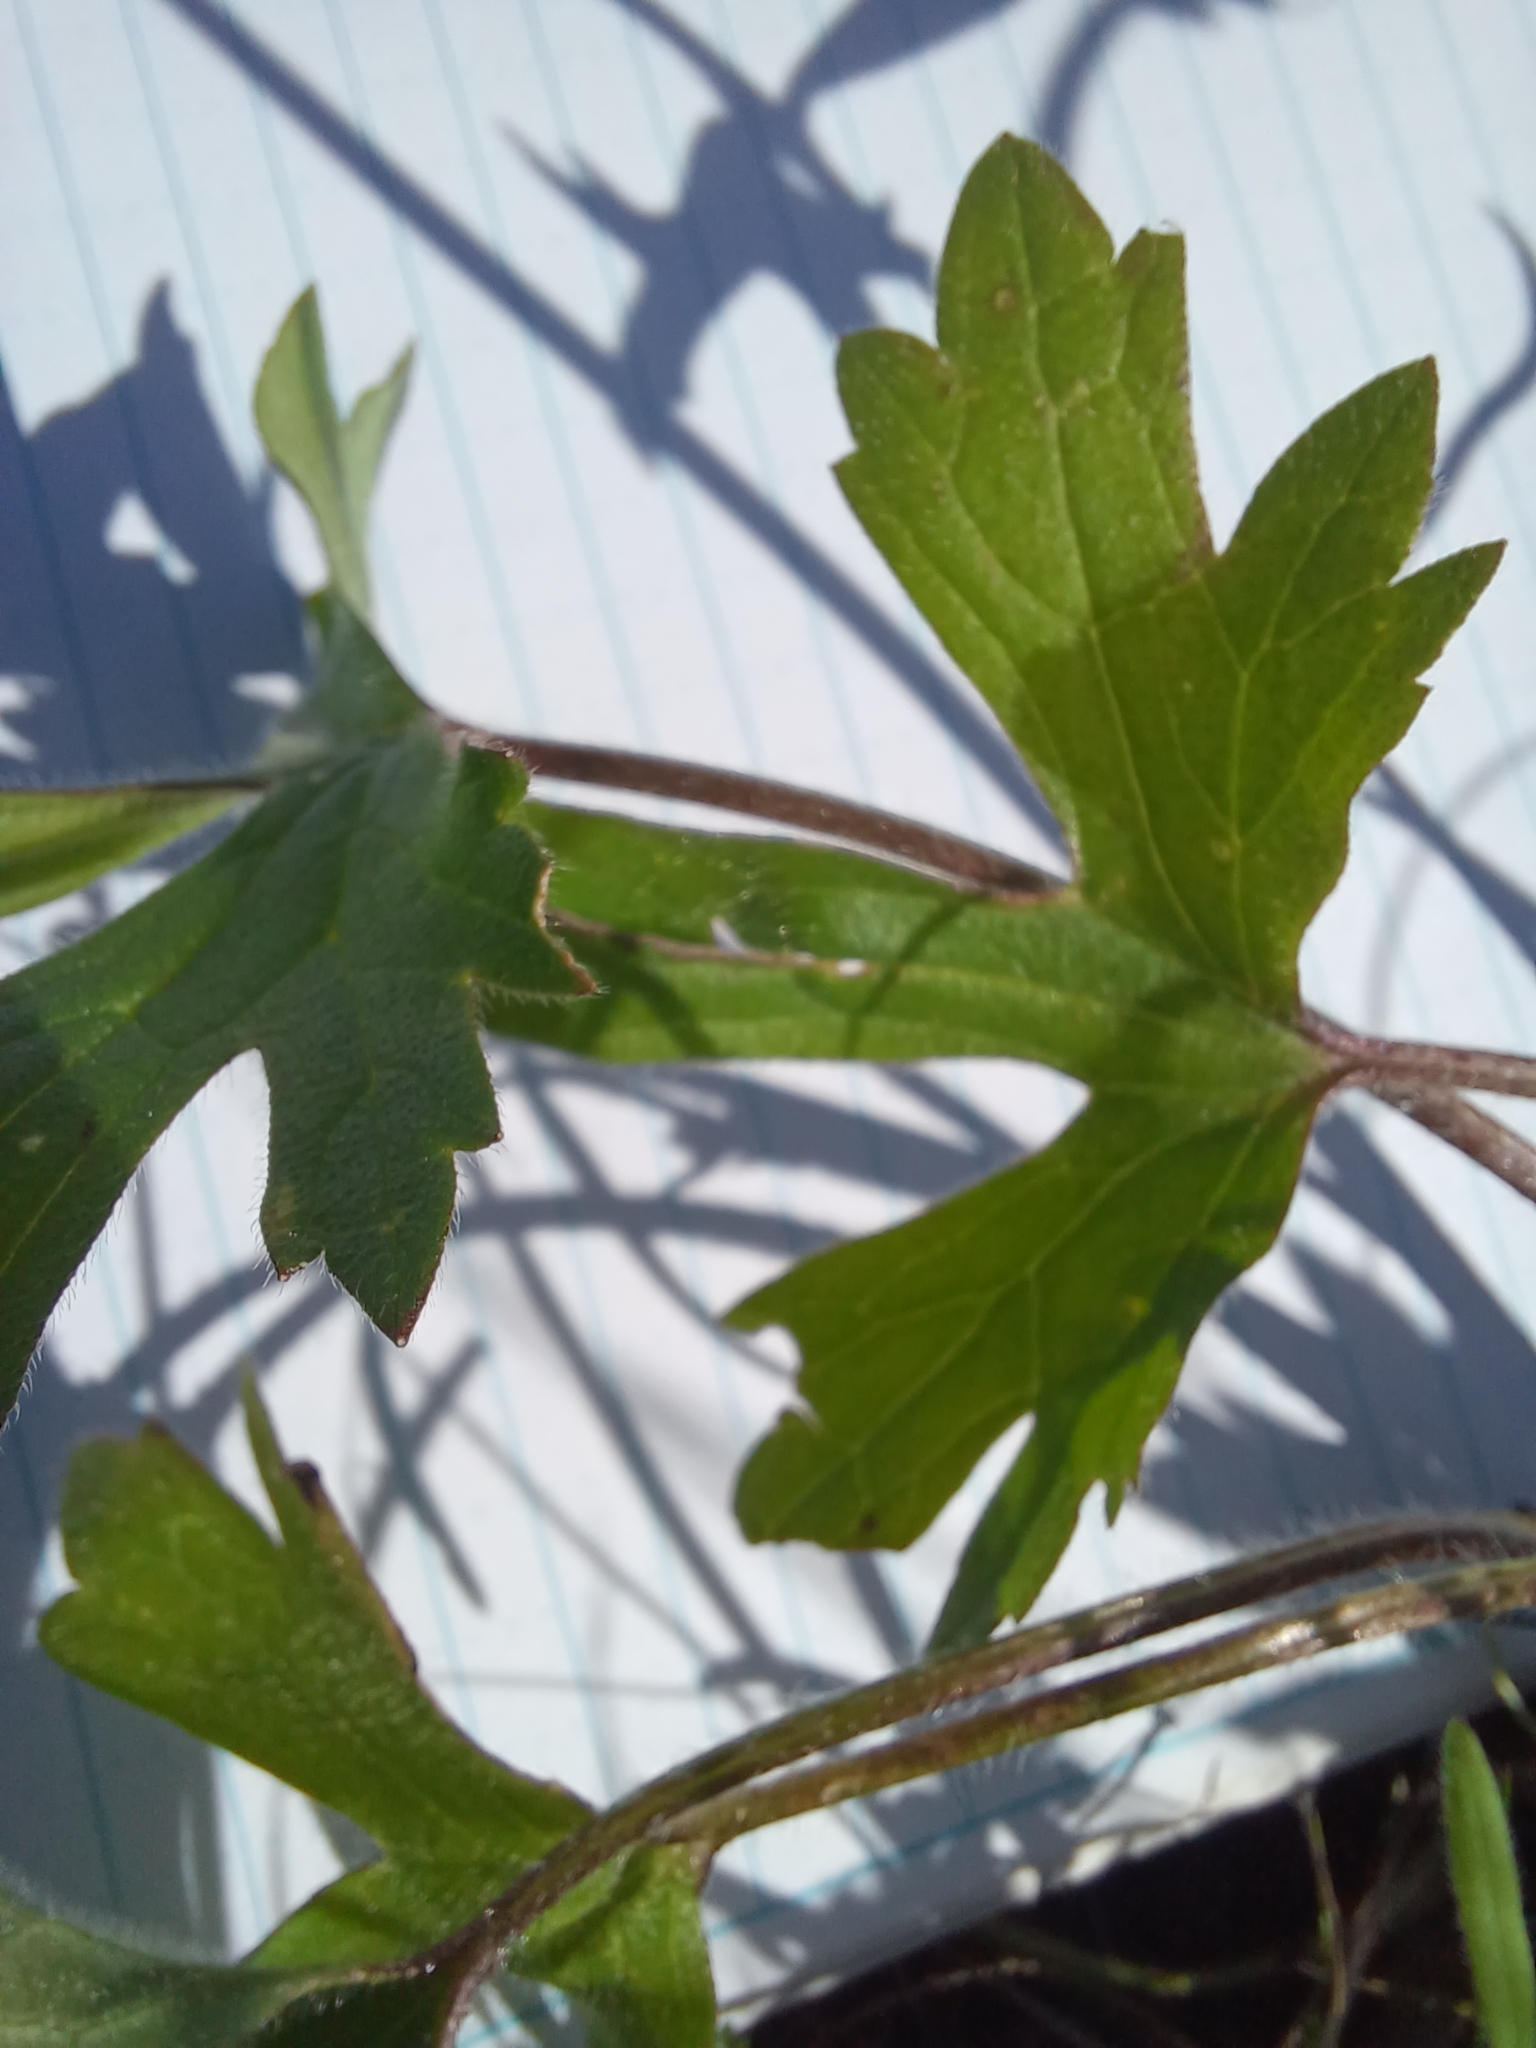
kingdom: Plantae
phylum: Tracheophyta
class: Magnoliopsida
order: Ranunculales
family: Ranunculaceae
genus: Ranunculus
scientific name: Ranunculus occidentalis
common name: Western buttercup
